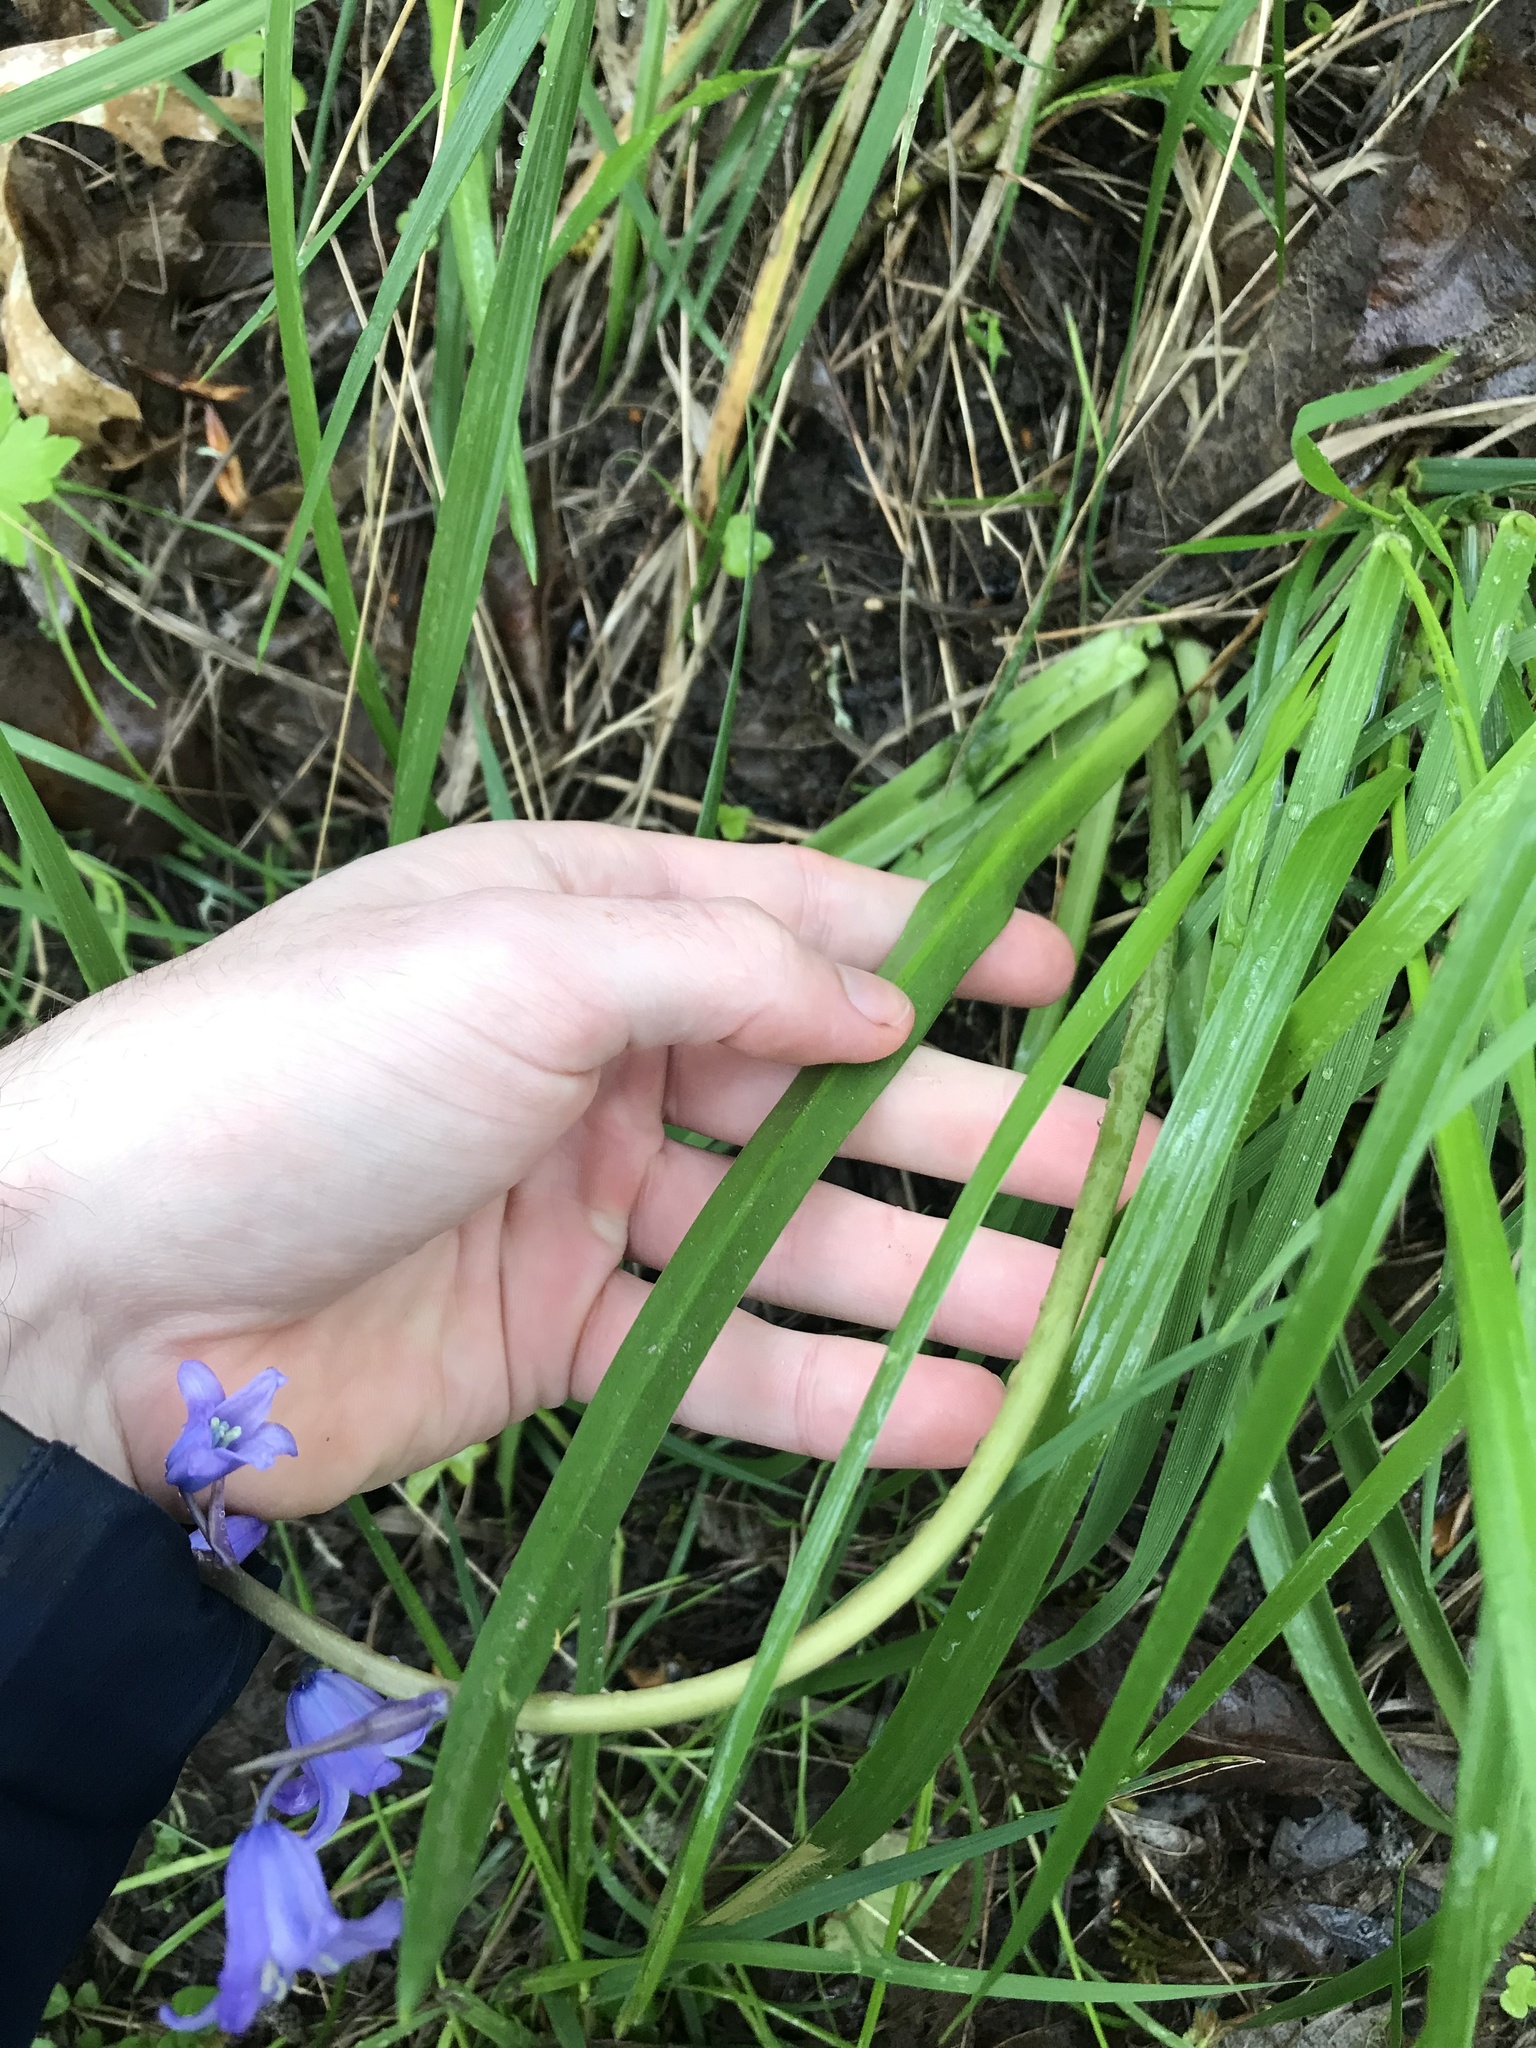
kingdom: Plantae
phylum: Tracheophyta
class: Liliopsida
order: Asparagales
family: Asparagaceae
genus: Hyacinthoides
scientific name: Hyacinthoides massartiana
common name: Hyacinthoides
